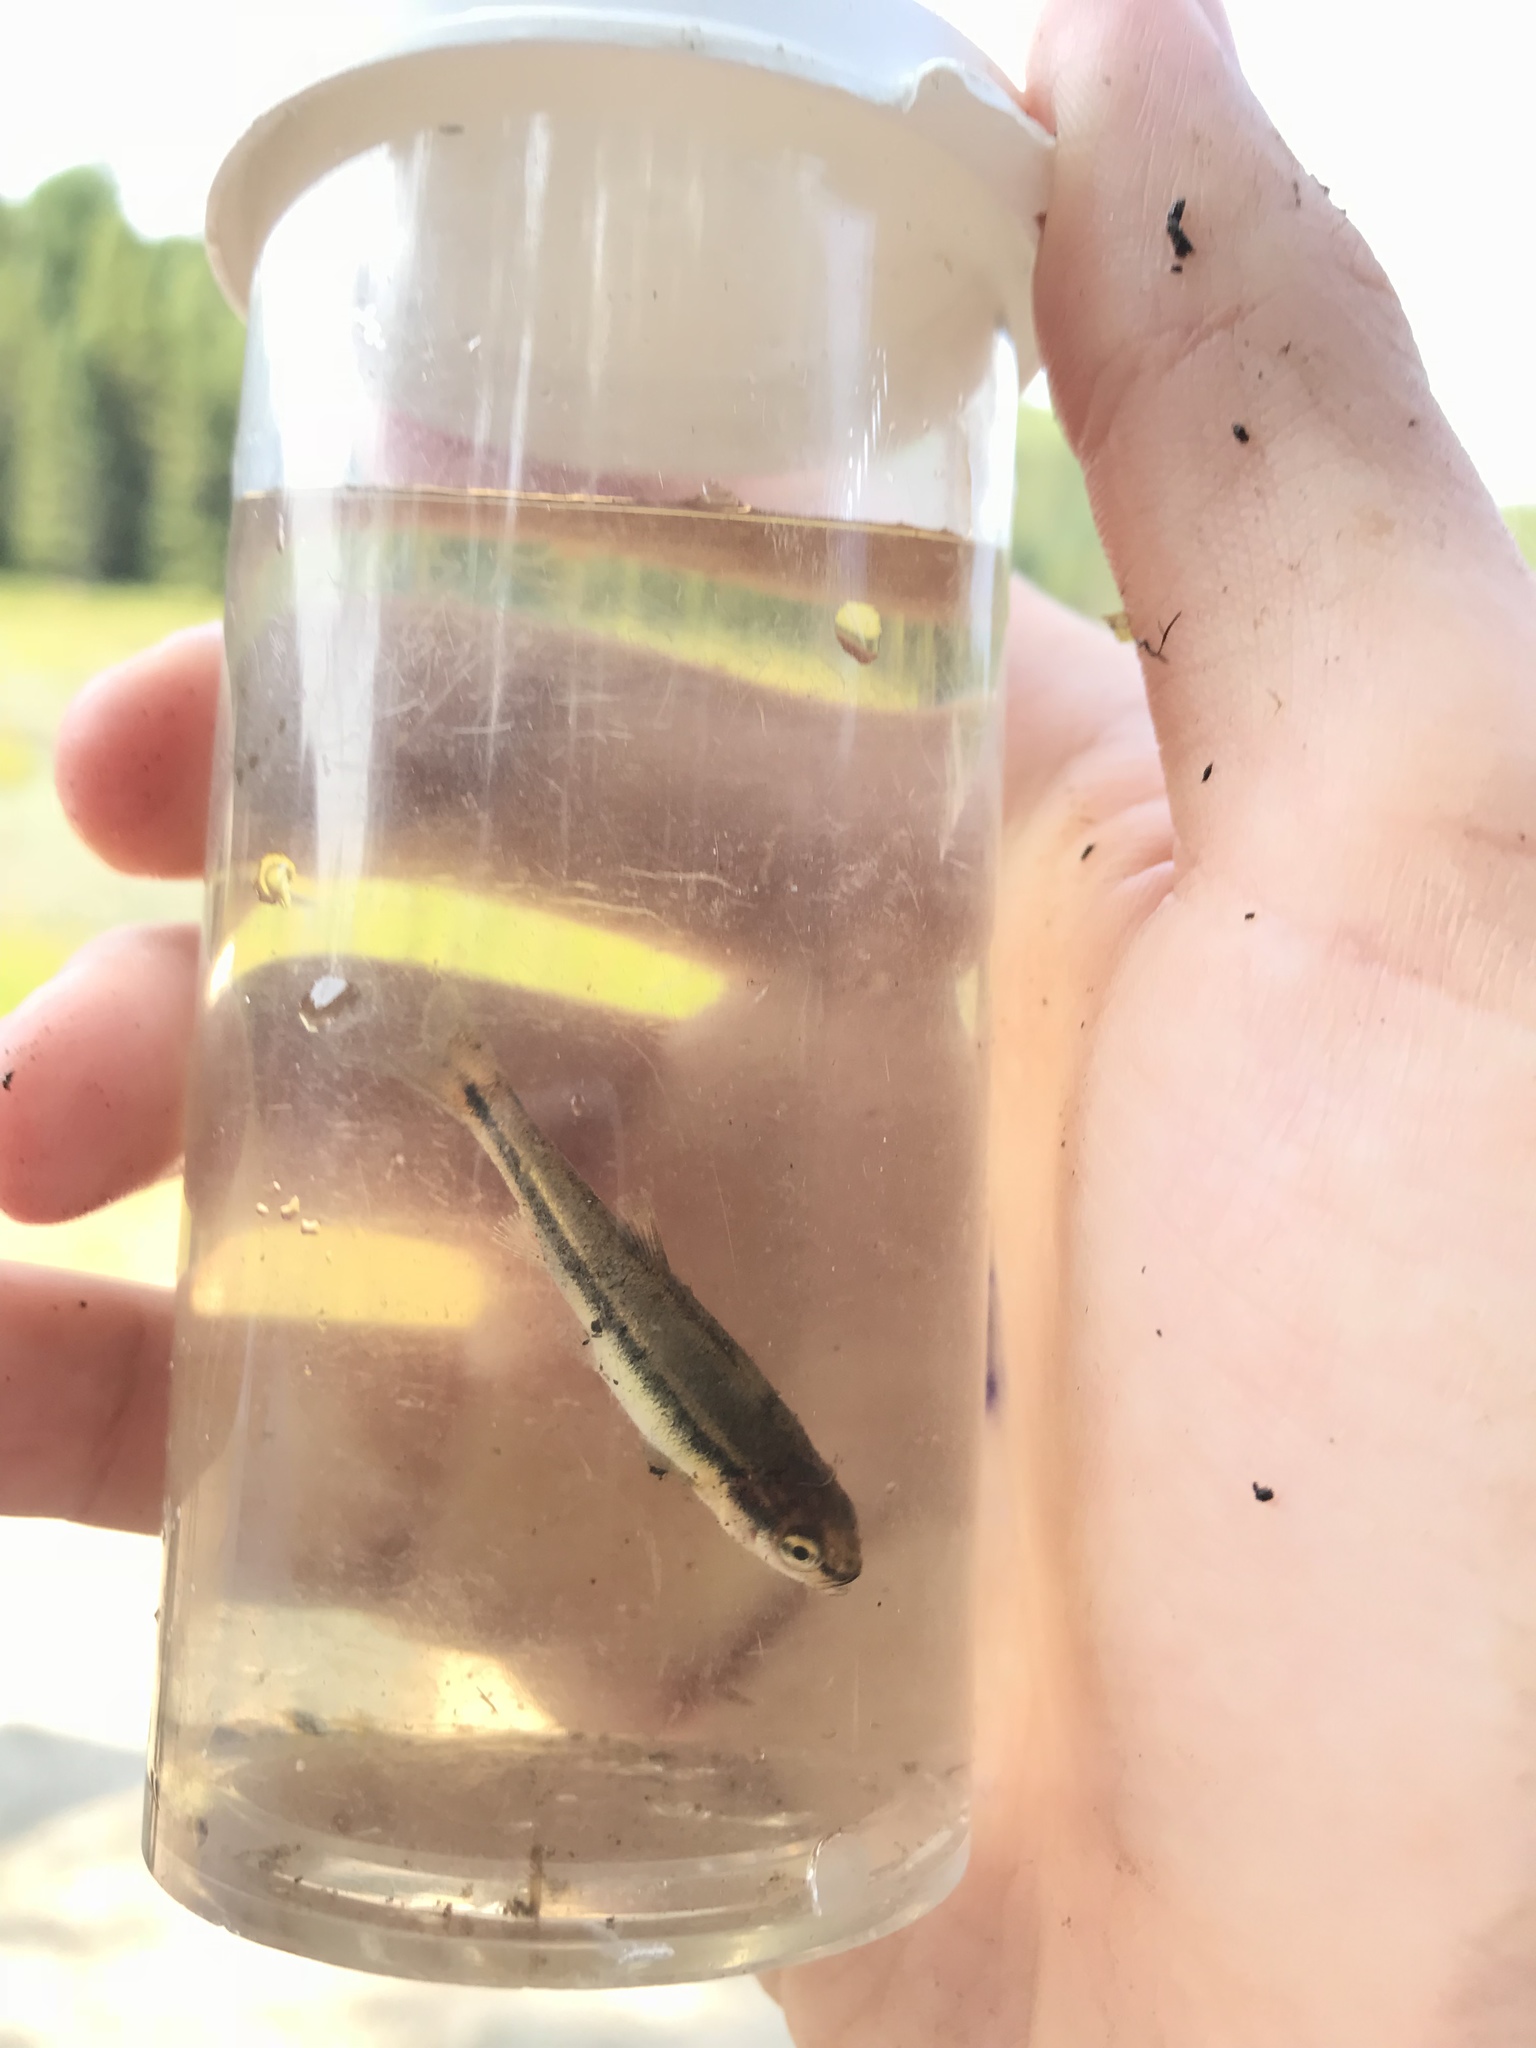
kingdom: Animalia
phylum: Chordata
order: Cypriniformes
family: Cyprinidae
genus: Semotilus
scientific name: Semotilus atromaculatus
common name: Creek chub
